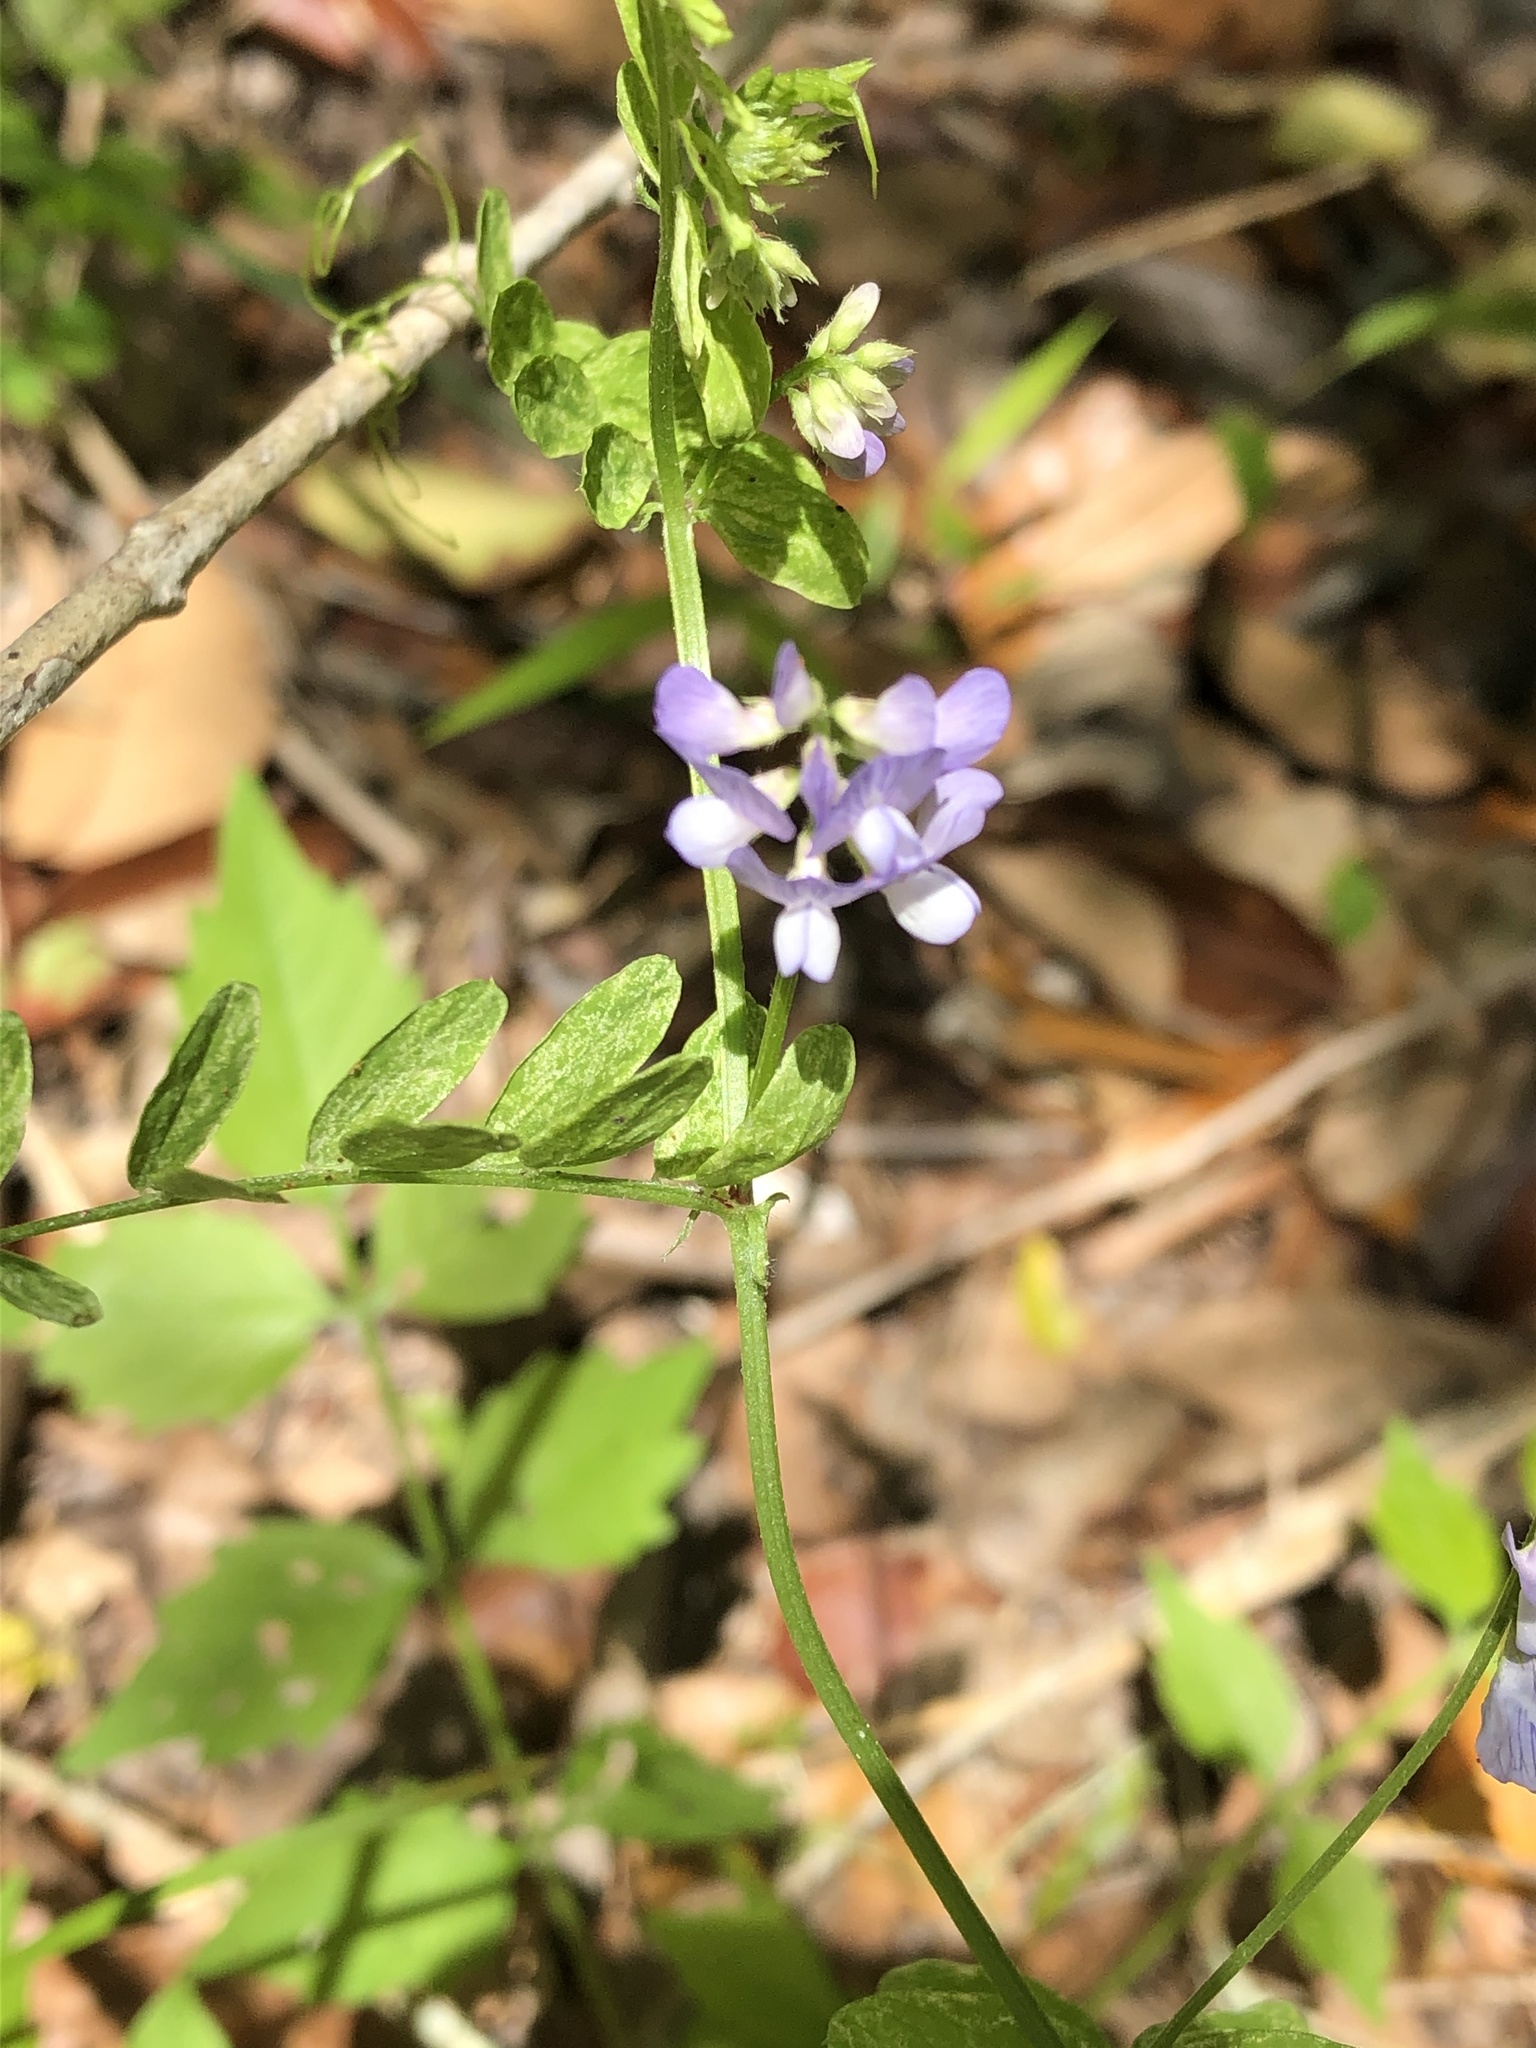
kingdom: Plantae
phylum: Tracheophyta
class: Magnoliopsida
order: Fabales
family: Fabaceae
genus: Vicia
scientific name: Vicia ludoviciana
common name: Louisiana vetch
